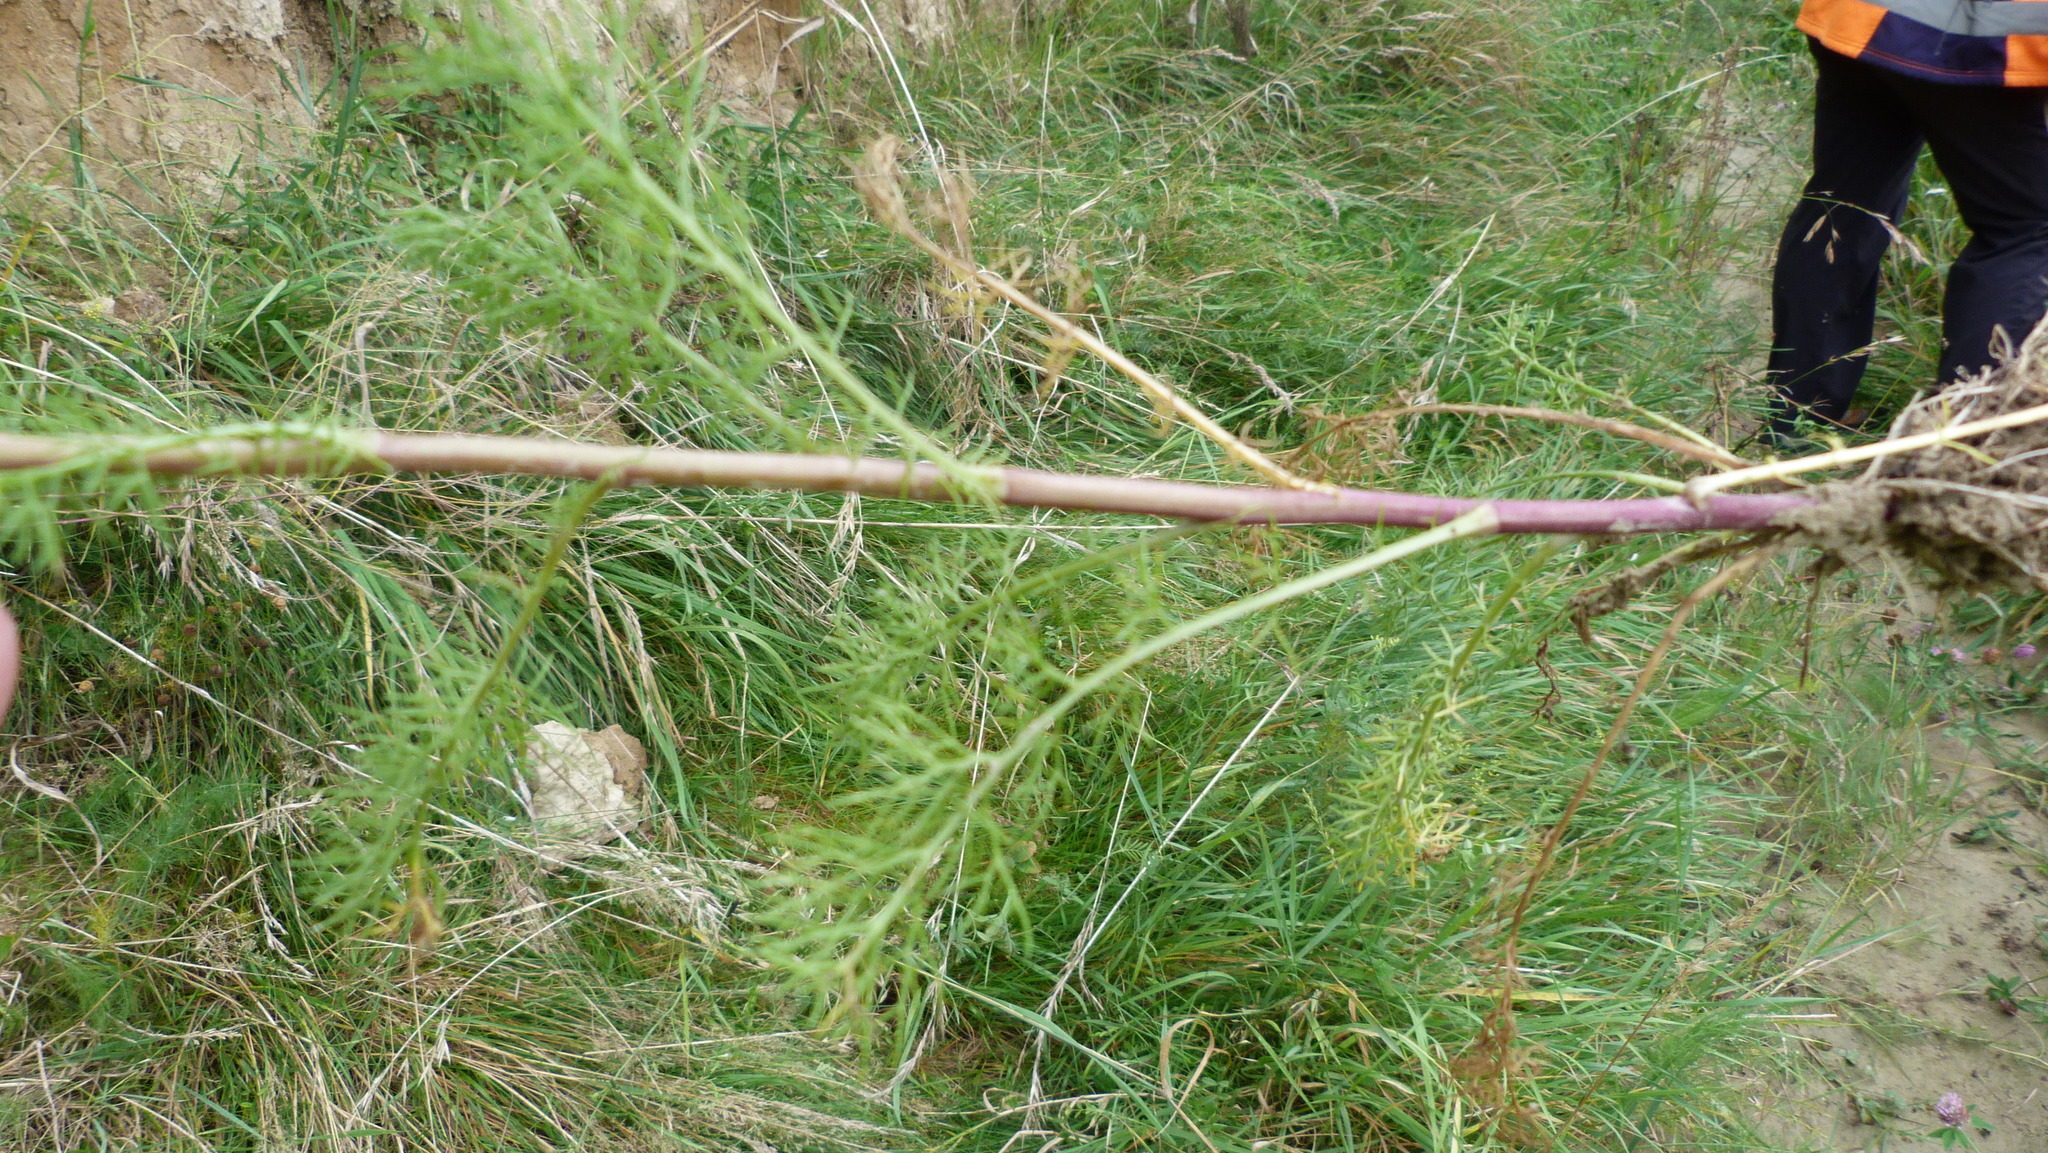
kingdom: Plantae
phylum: Tracheophyta
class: Magnoliopsida
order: Asterales
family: Asteraceae
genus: Tripleurospermum
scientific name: Tripleurospermum inodorum
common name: Scentless mayweed
